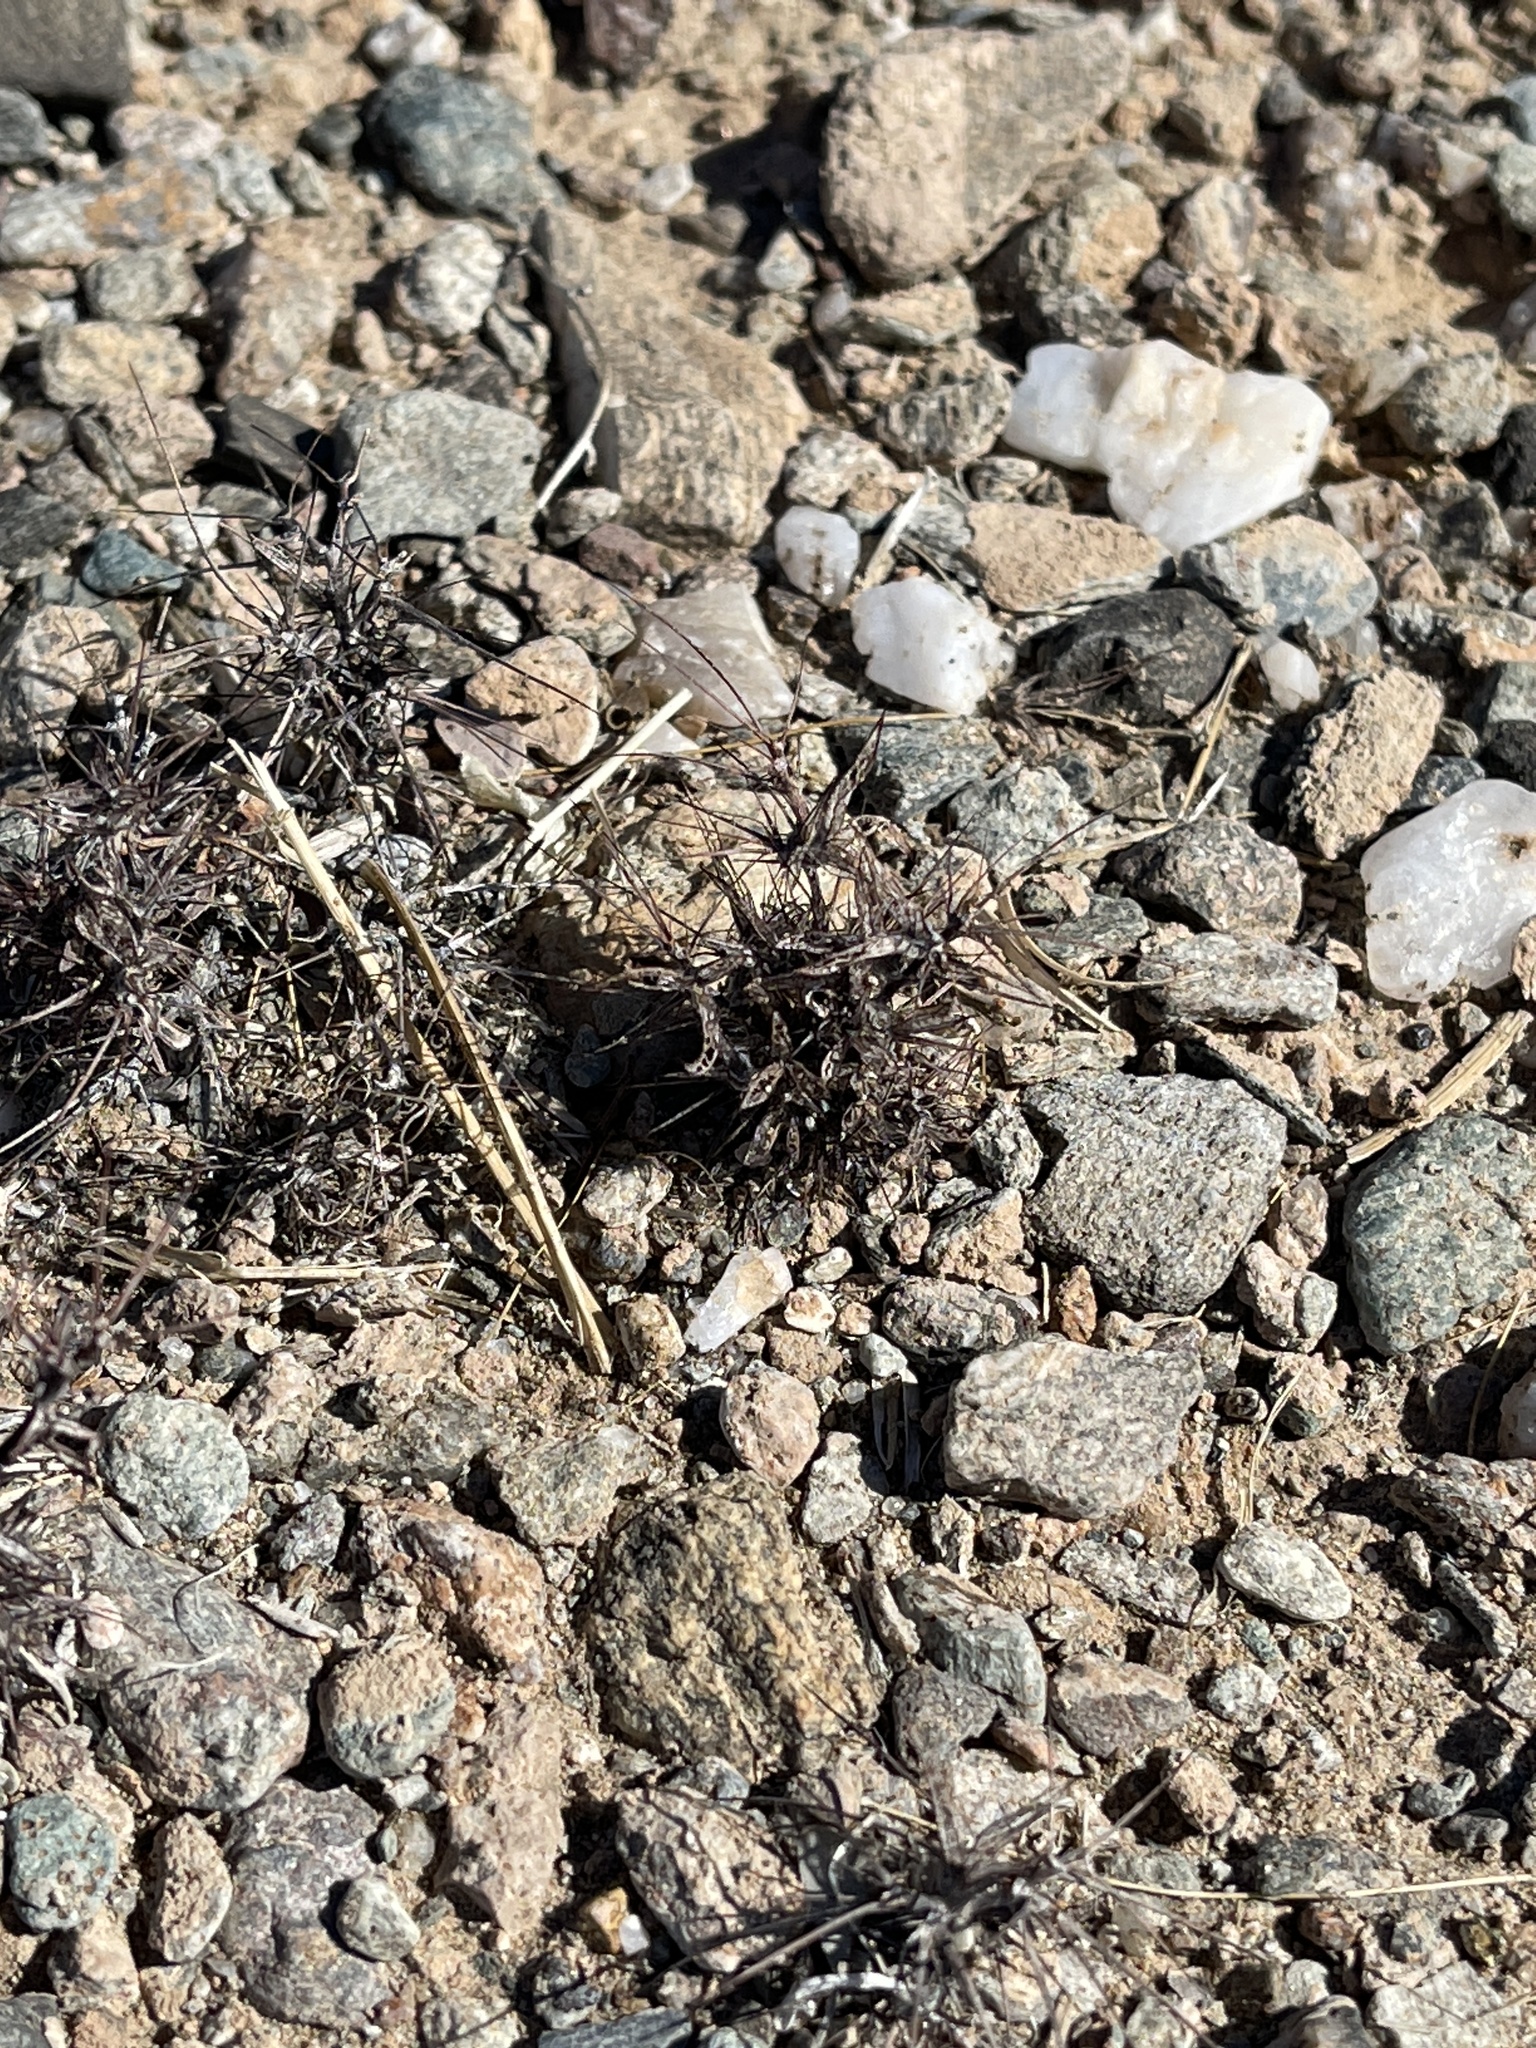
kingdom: Plantae
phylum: Tracheophyta
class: Magnoliopsida
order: Caryophyllales
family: Polygonaceae
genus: Chorizanthe
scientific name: Chorizanthe rigida
